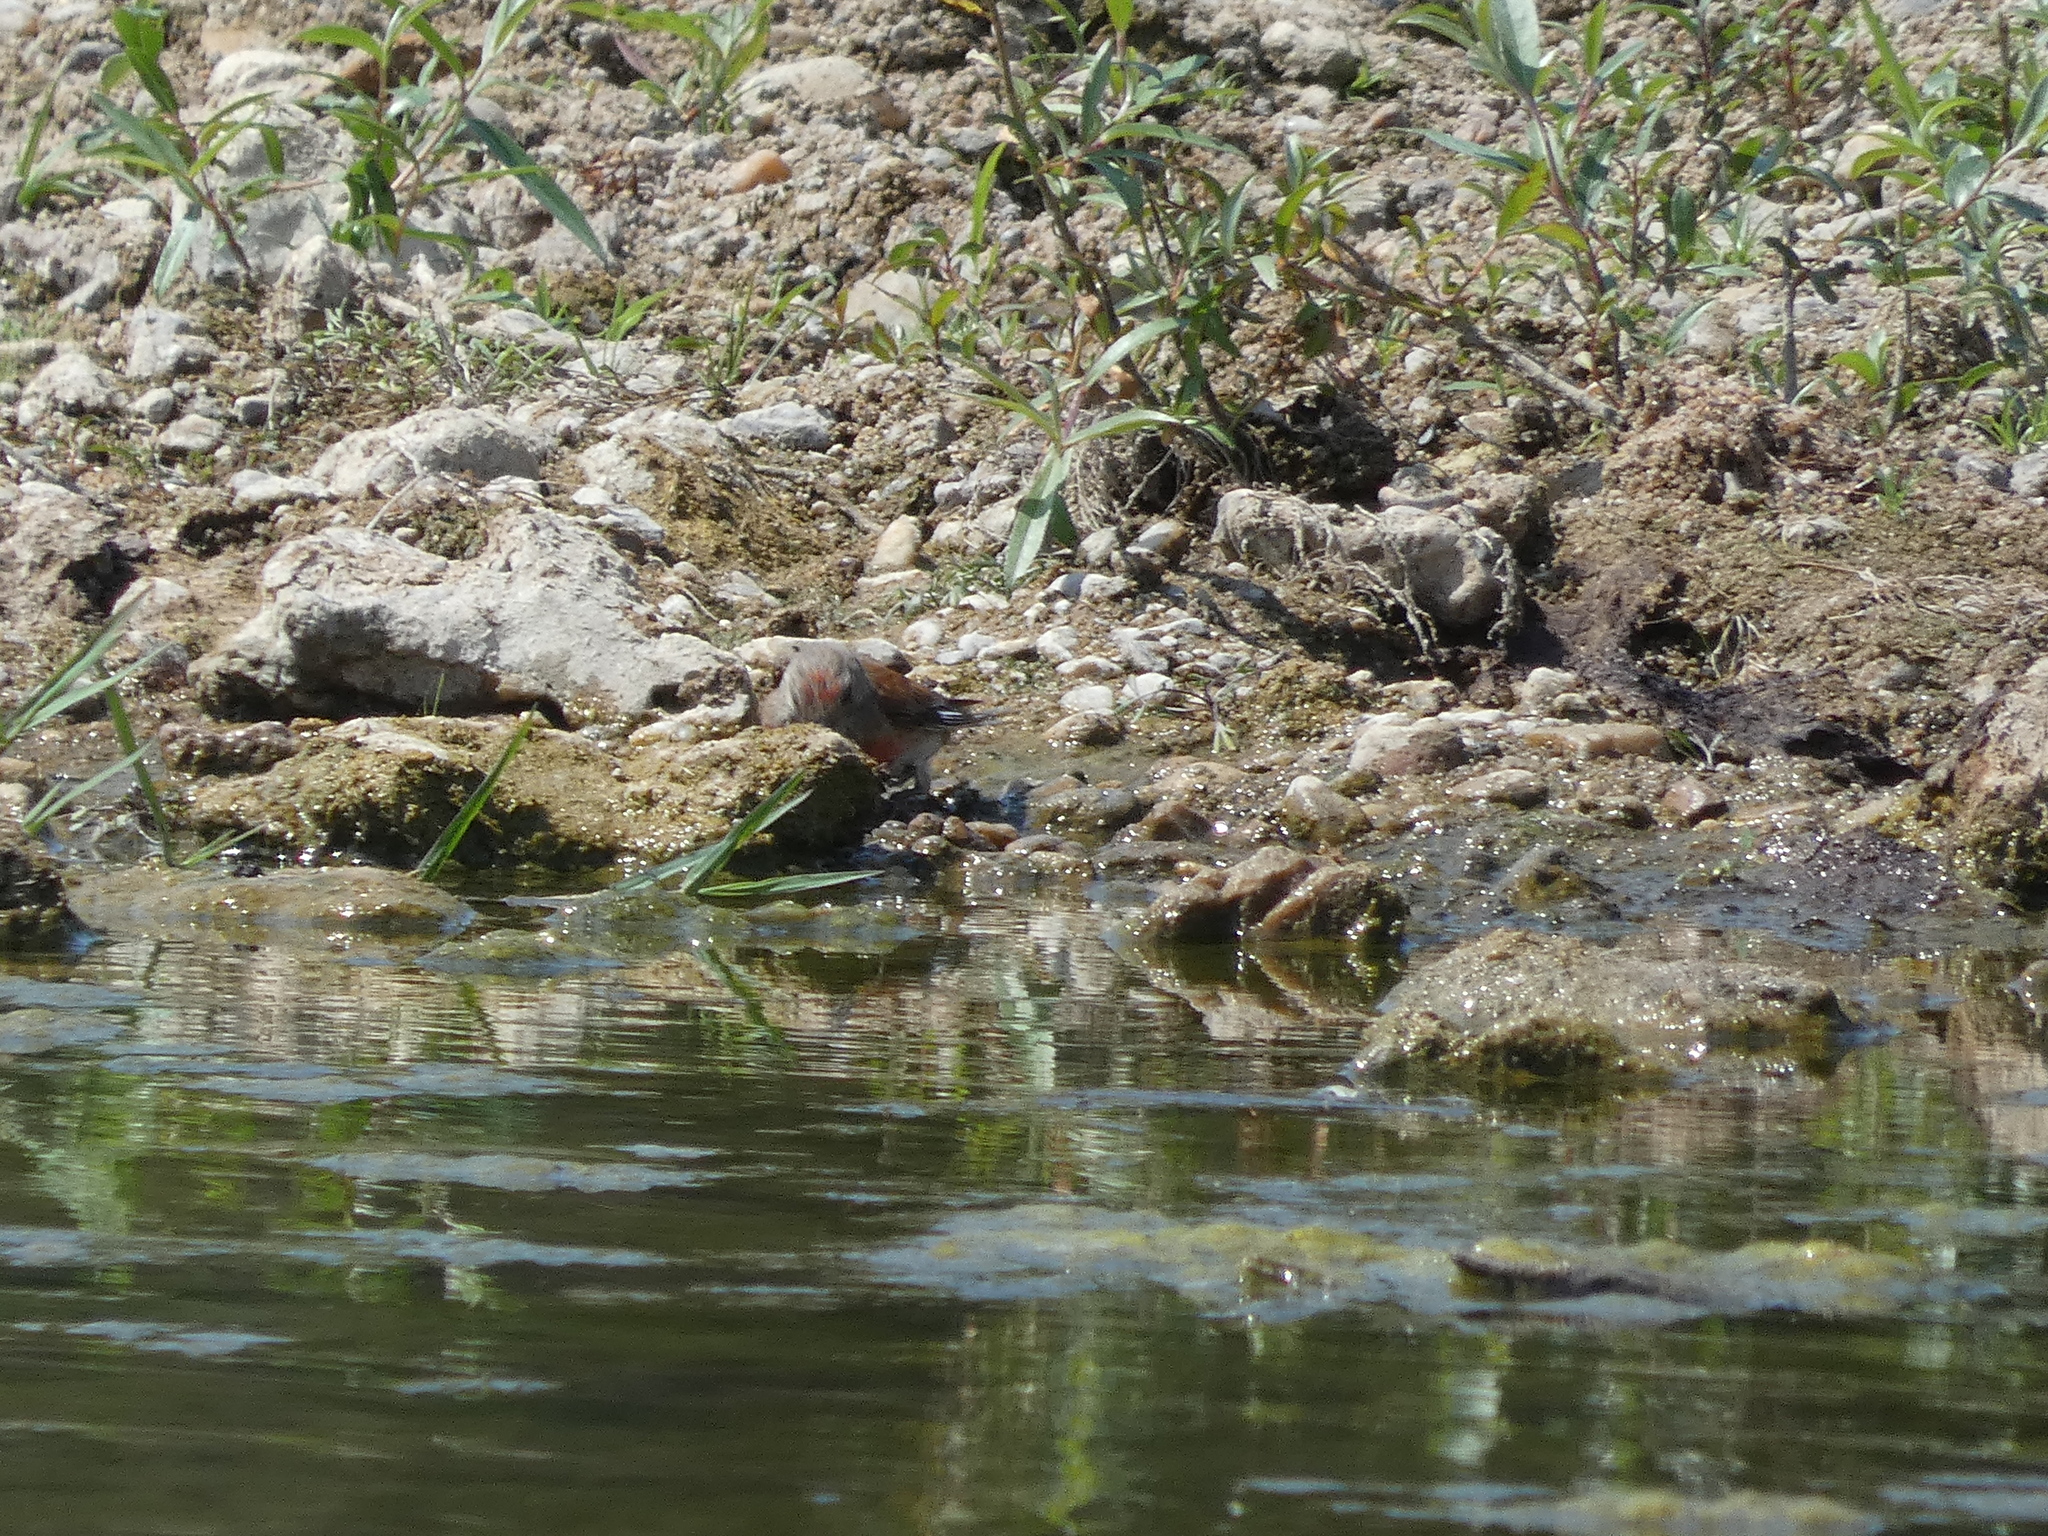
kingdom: Animalia
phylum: Chordata
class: Aves
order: Passeriformes
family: Fringillidae
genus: Linaria
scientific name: Linaria cannabina
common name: Common linnet
